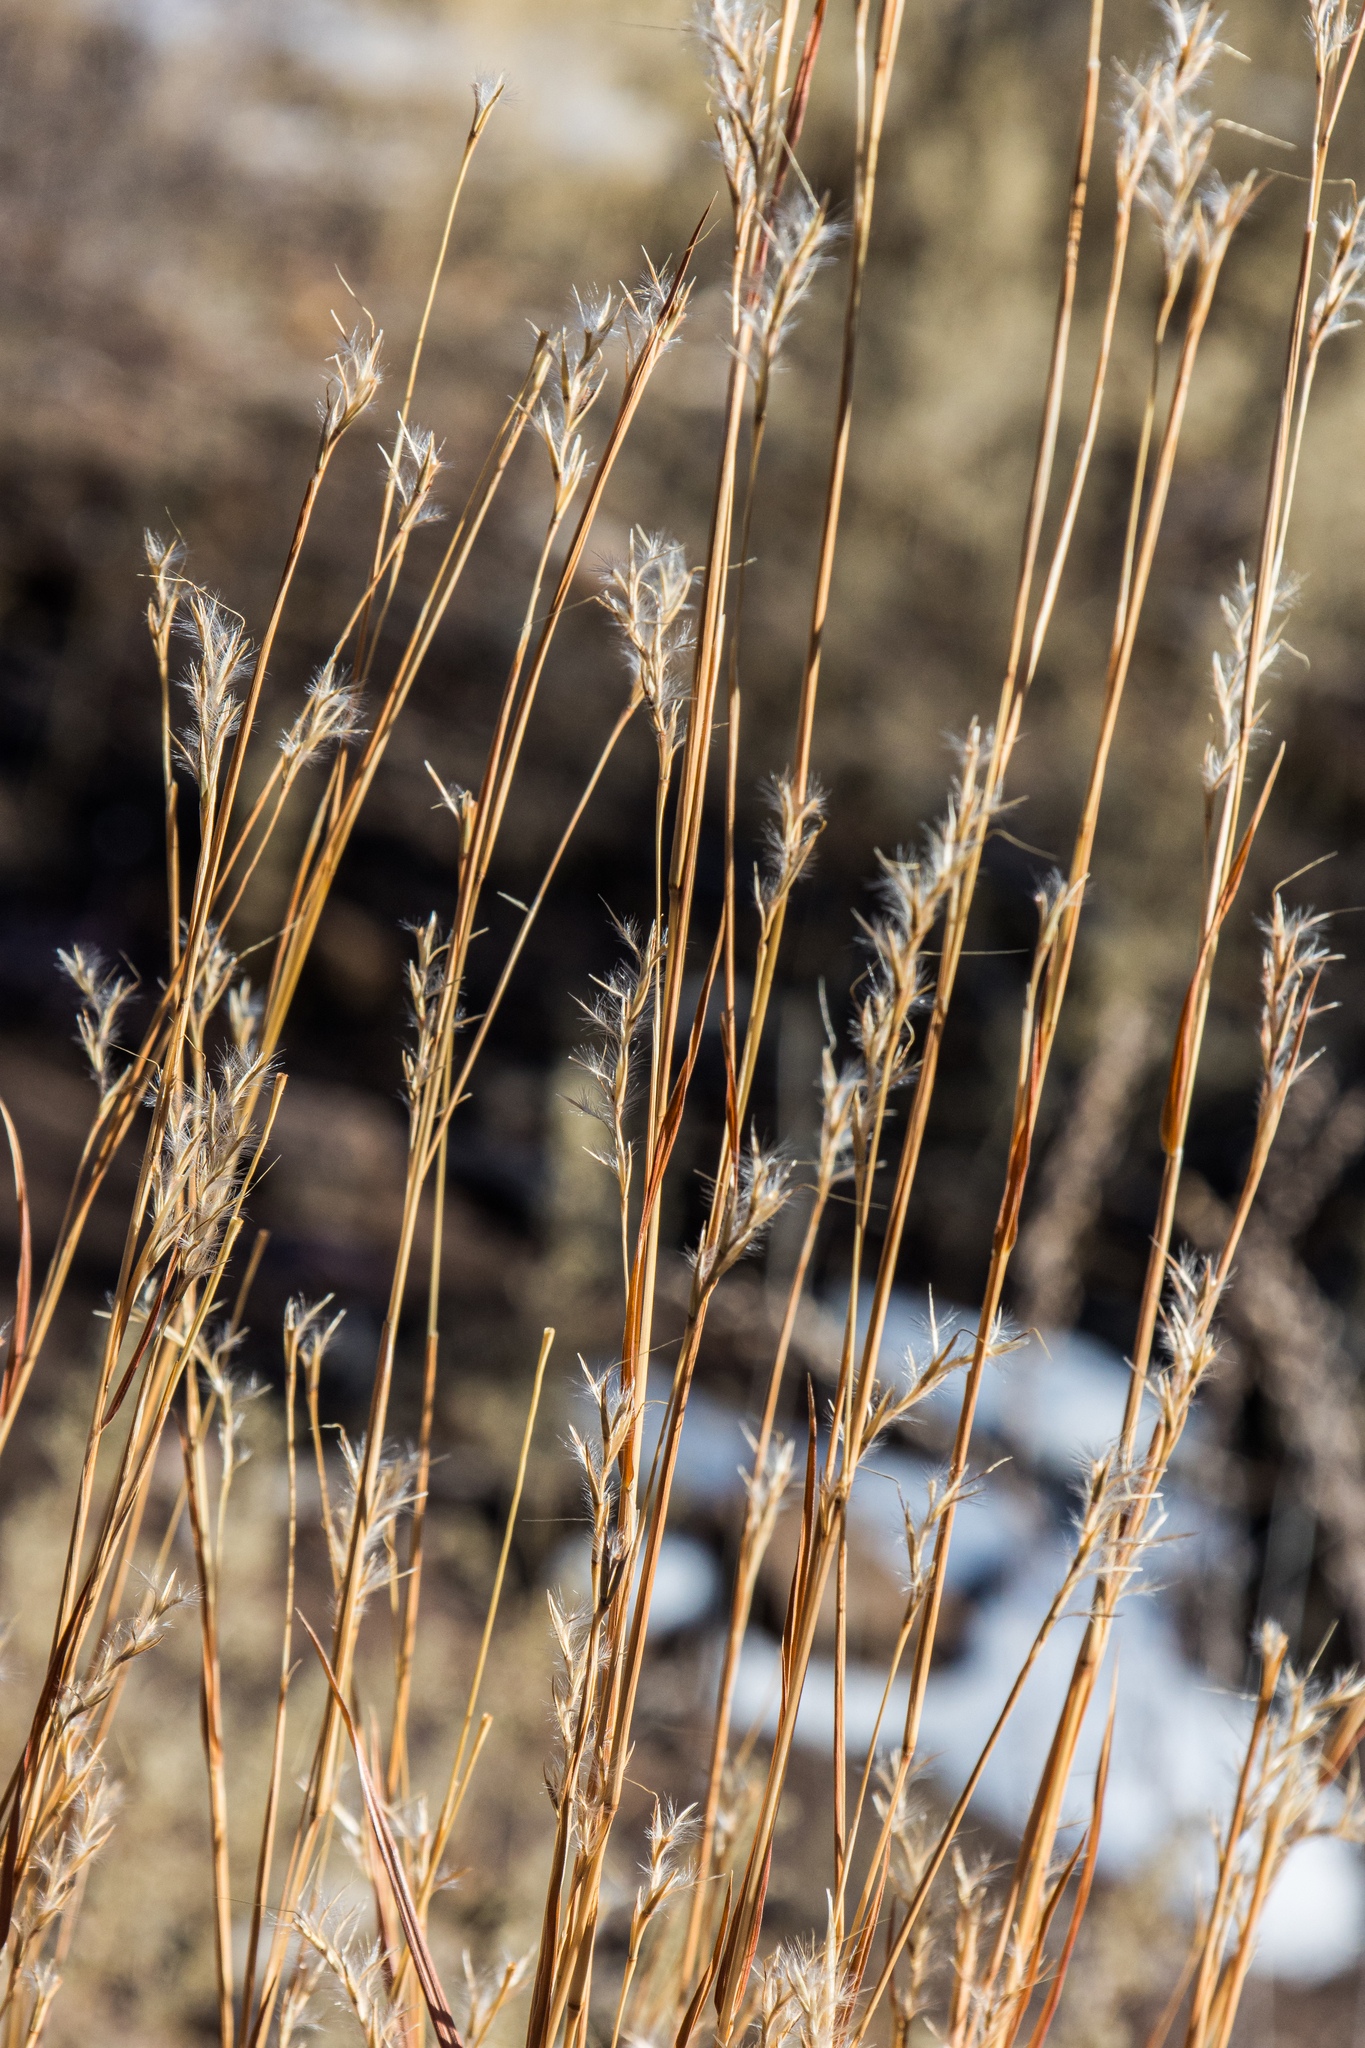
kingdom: Plantae
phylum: Tracheophyta
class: Liliopsida
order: Poales
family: Poaceae
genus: Schizachyrium
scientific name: Schizachyrium scoparium
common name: Little bluestem
